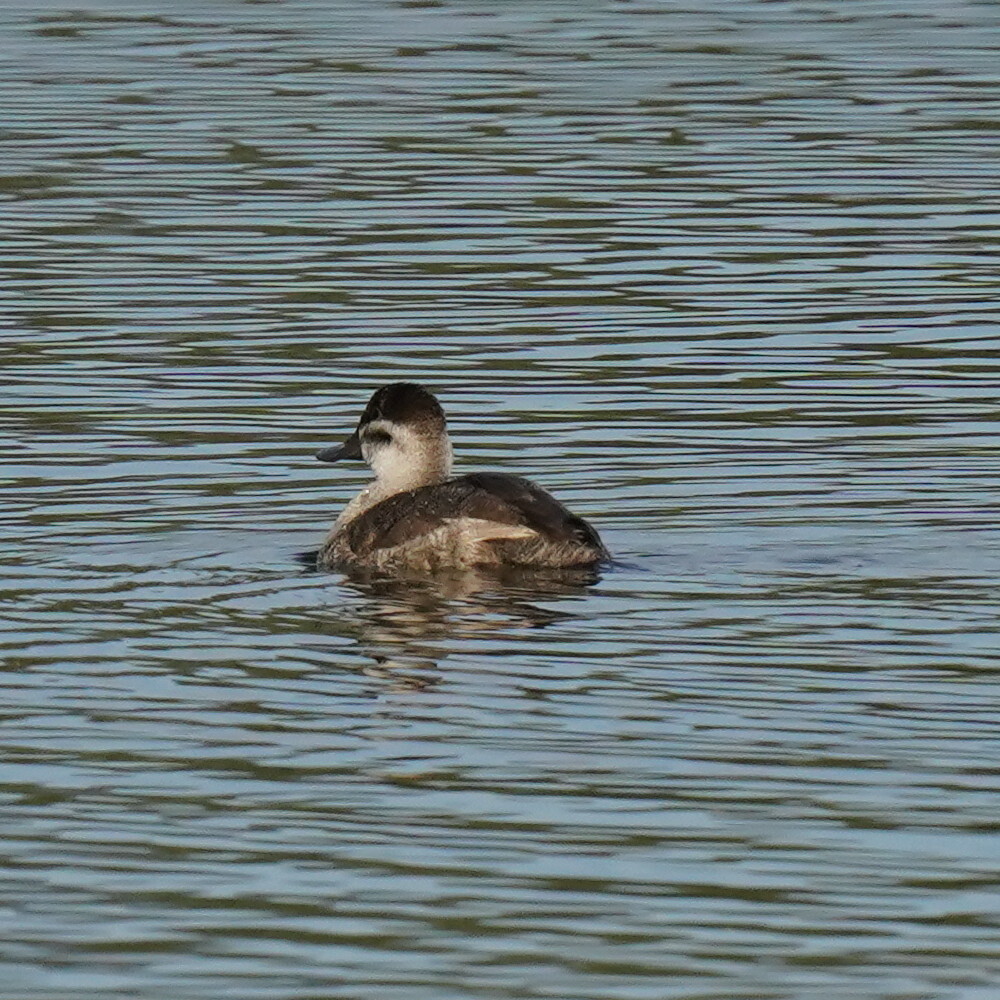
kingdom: Animalia
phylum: Chordata
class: Aves
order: Anseriformes
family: Anatidae
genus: Oxyura
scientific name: Oxyura jamaicensis
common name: Ruddy duck
